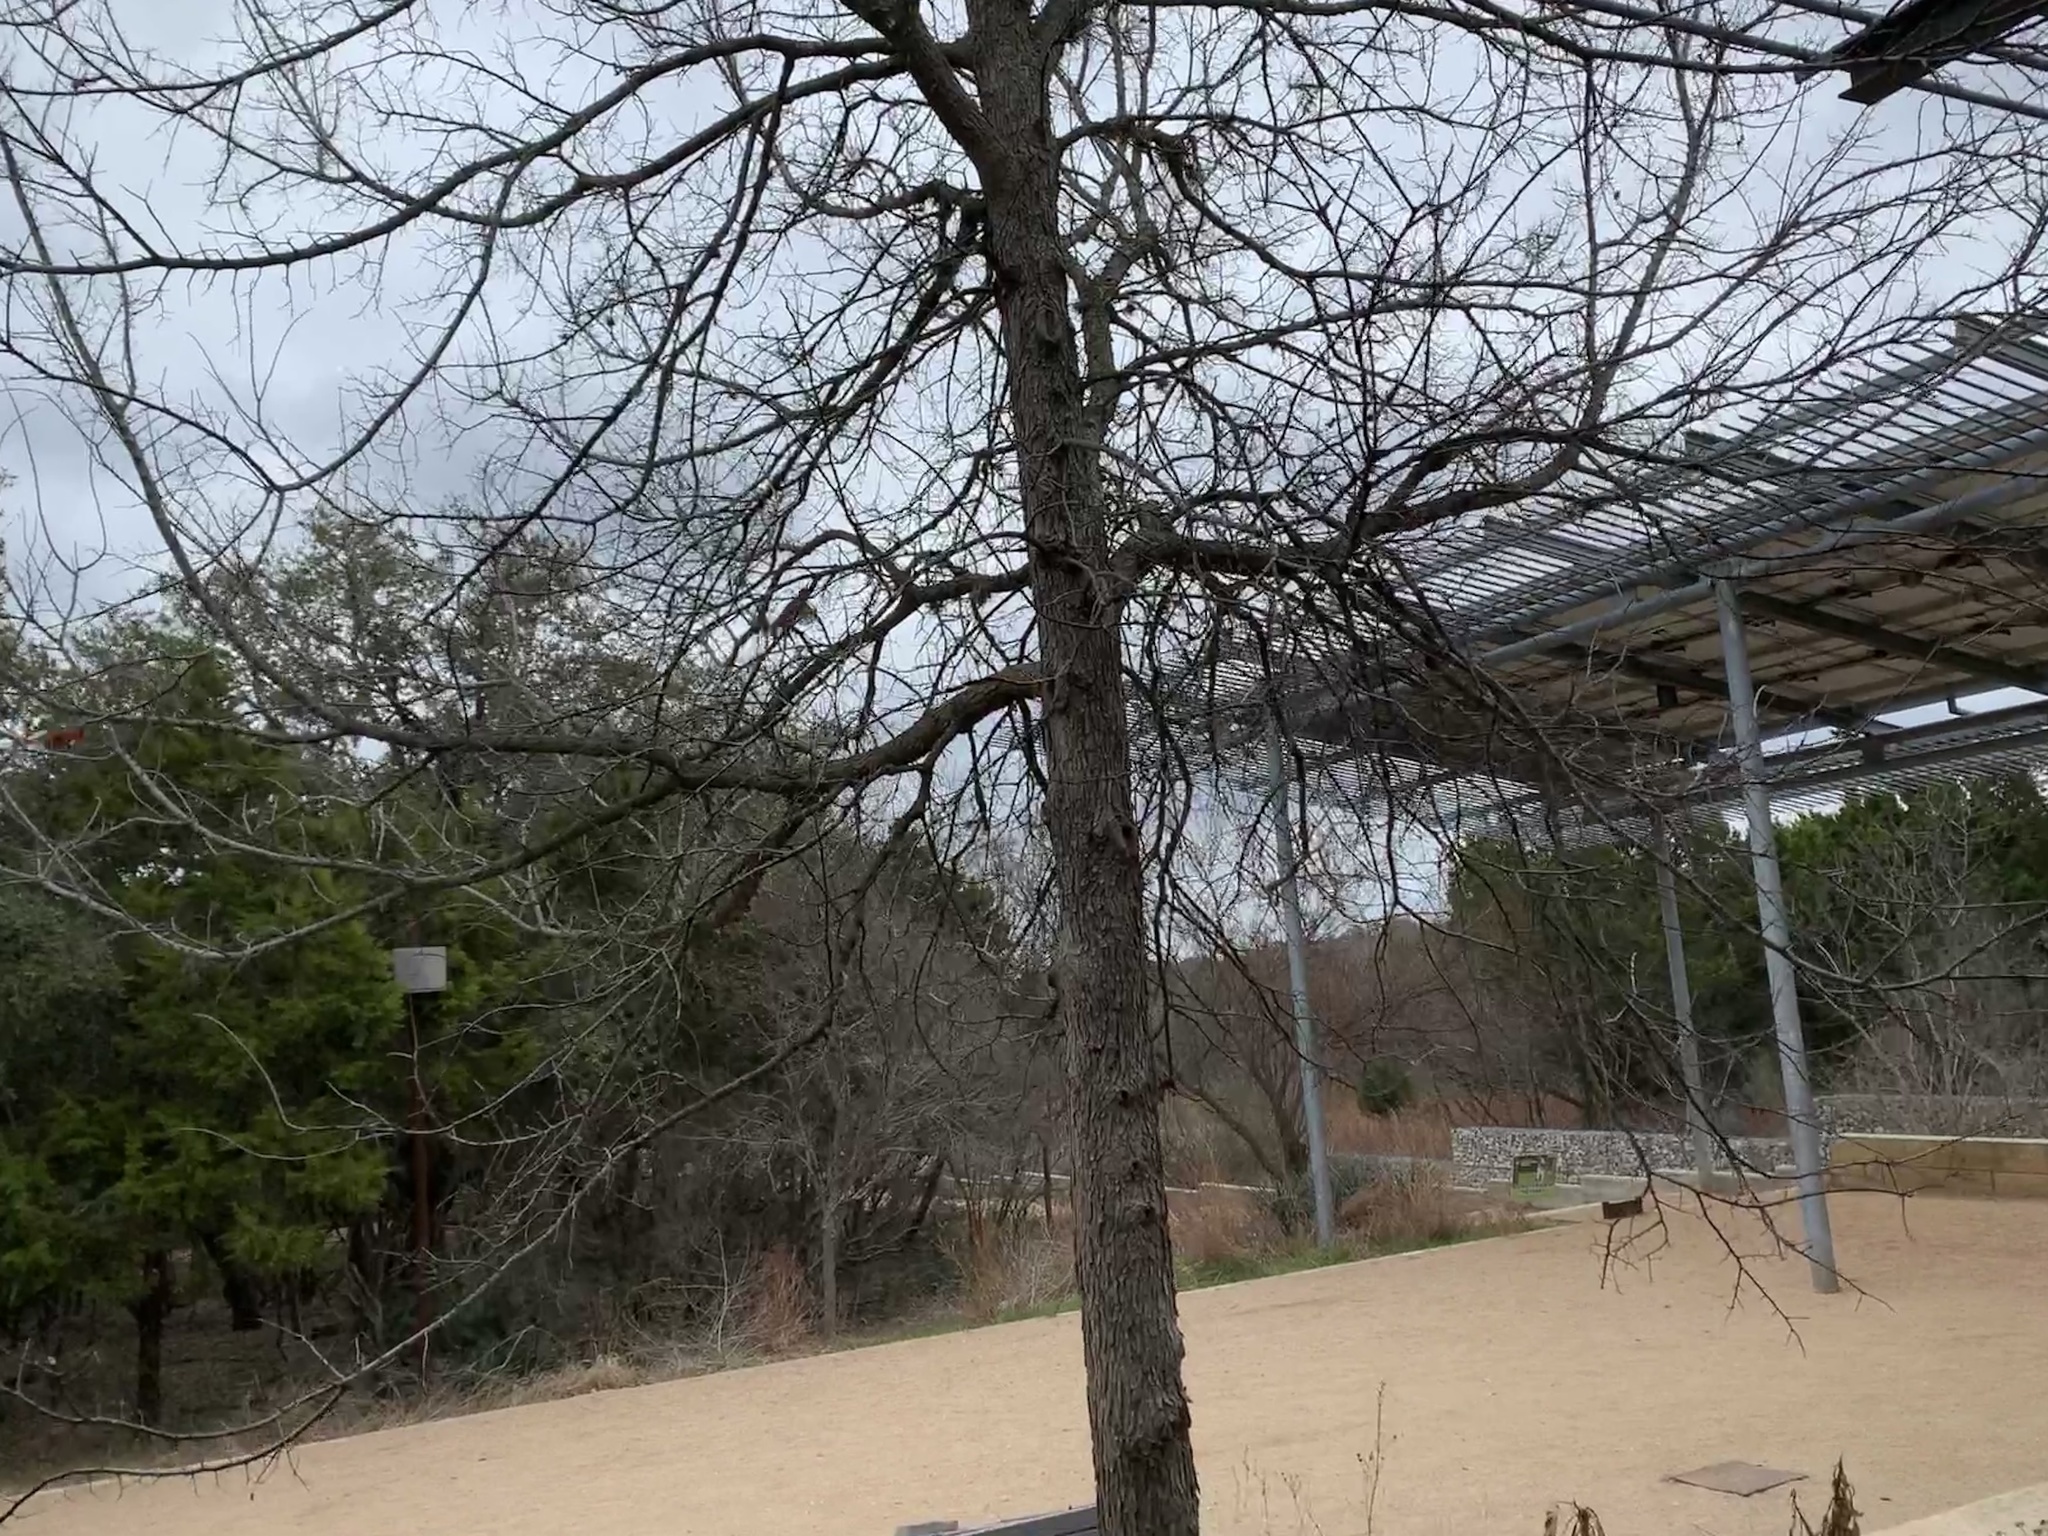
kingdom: Animalia
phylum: Chordata
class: Aves
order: Passeriformes
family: Cardinalidae
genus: Cardinalis
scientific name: Cardinalis cardinalis
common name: Northern cardinal
